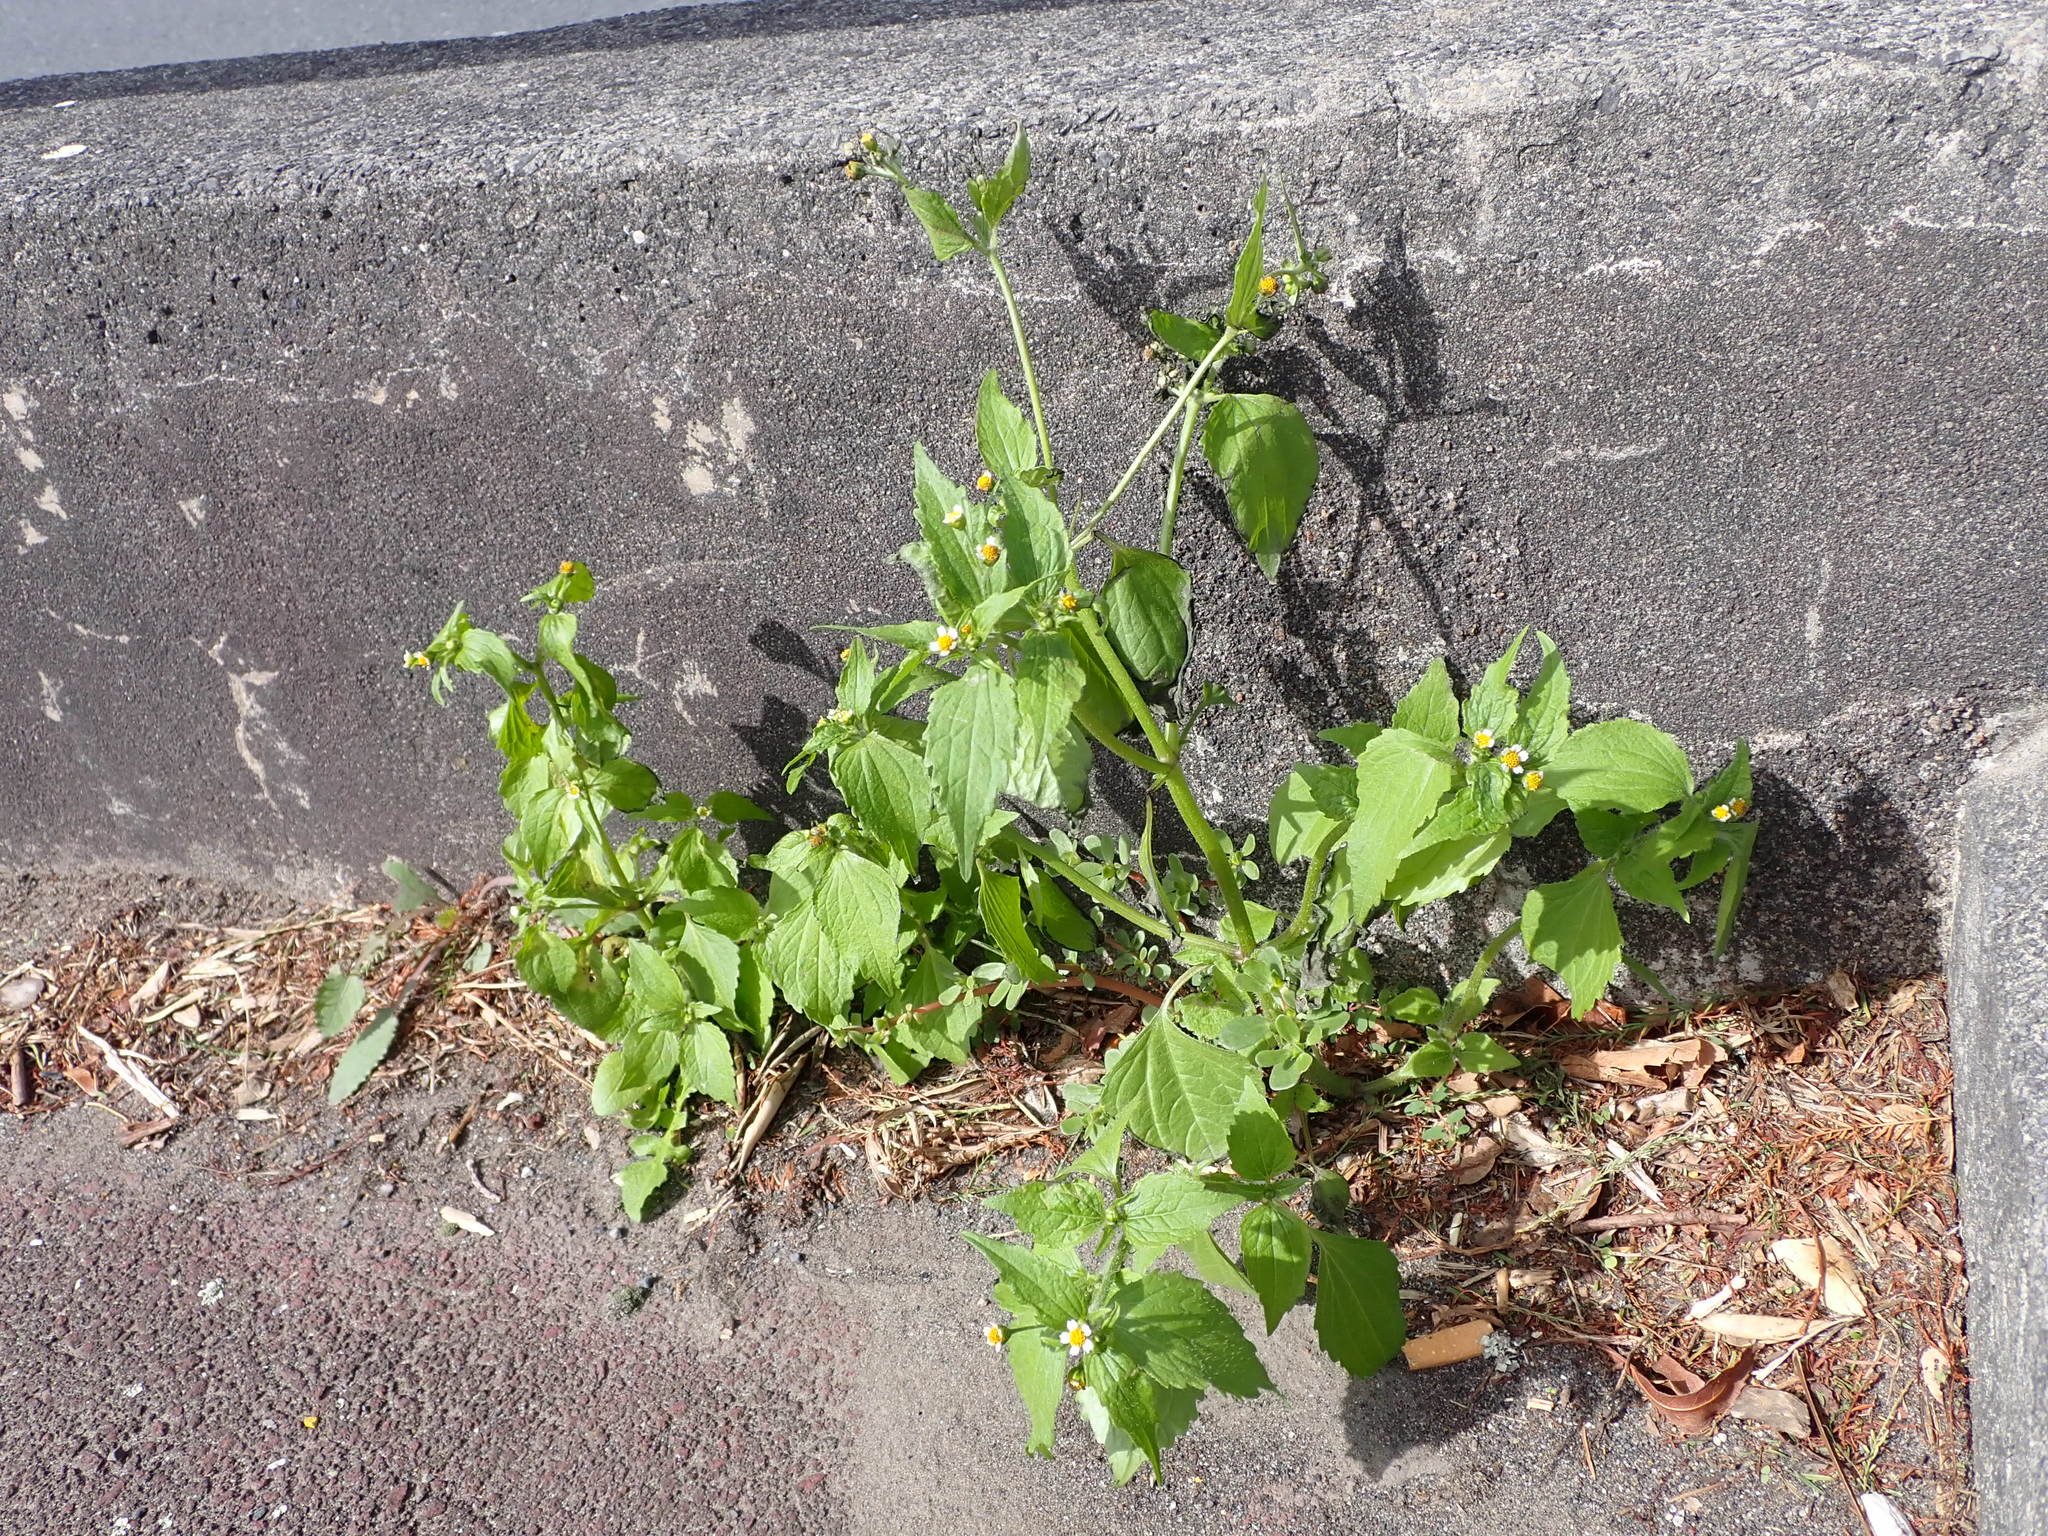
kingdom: Plantae
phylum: Tracheophyta
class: Magnoliopsida
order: Asterales
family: Asteraceae
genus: Galinsoga
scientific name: Galinsoga quadriradiata
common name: Shaggy soldier
